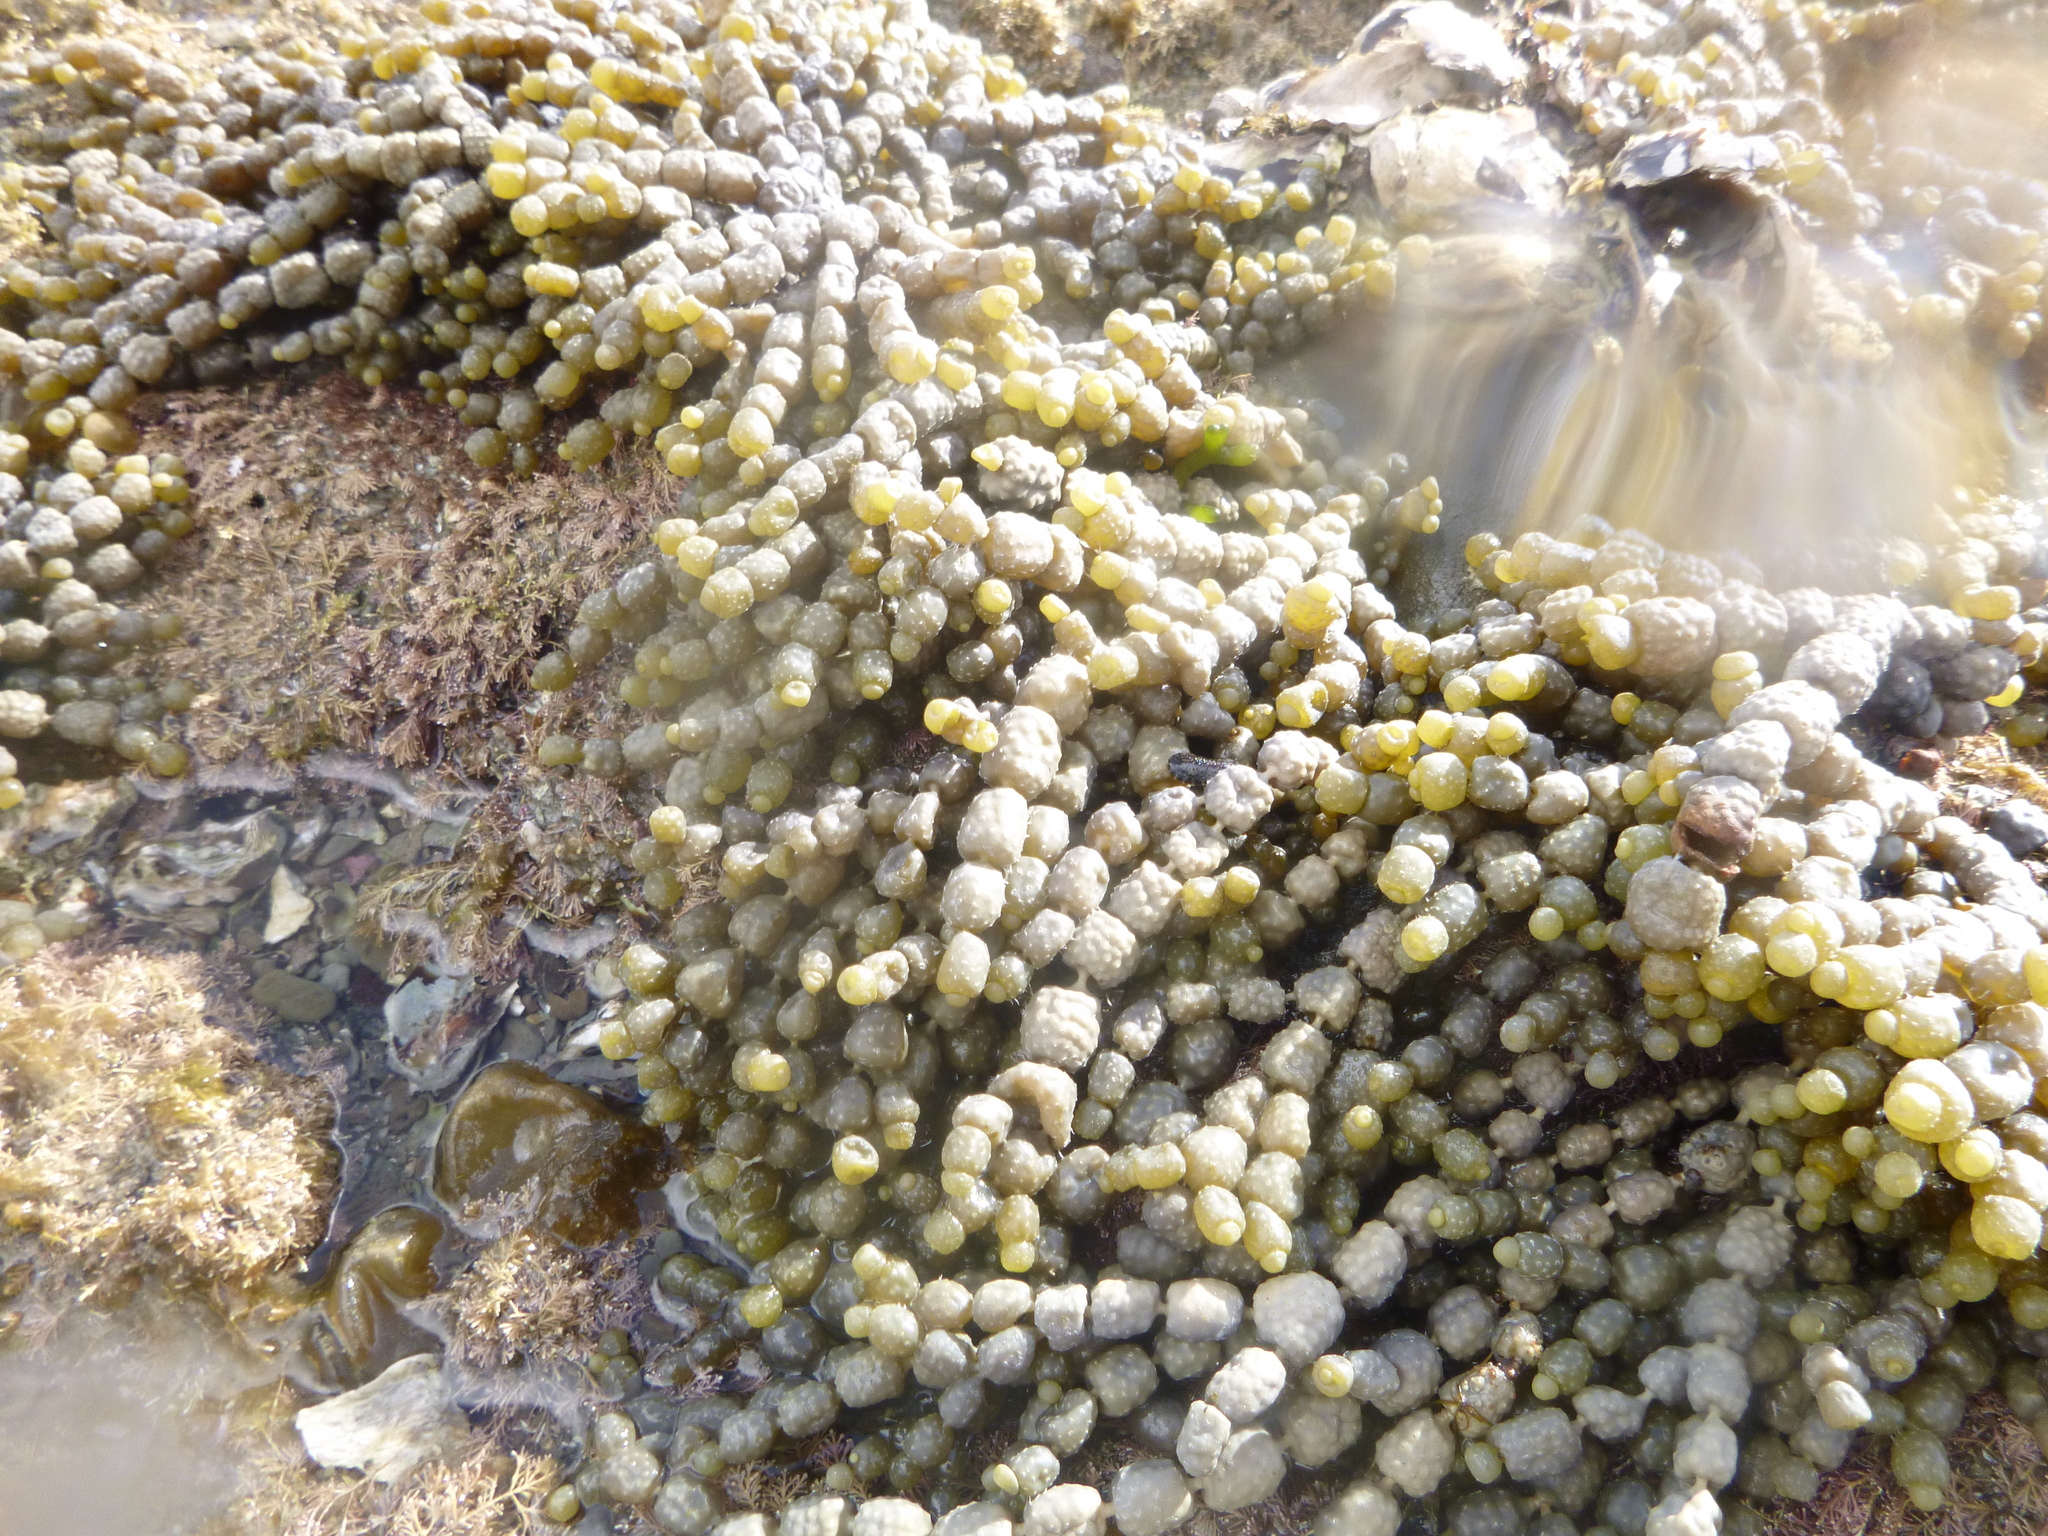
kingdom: Chromista
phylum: Ochrophyta
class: Phaeophyceae
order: Fucales
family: Hormosiraceae
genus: Hormosira
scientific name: Hormosira banksii
